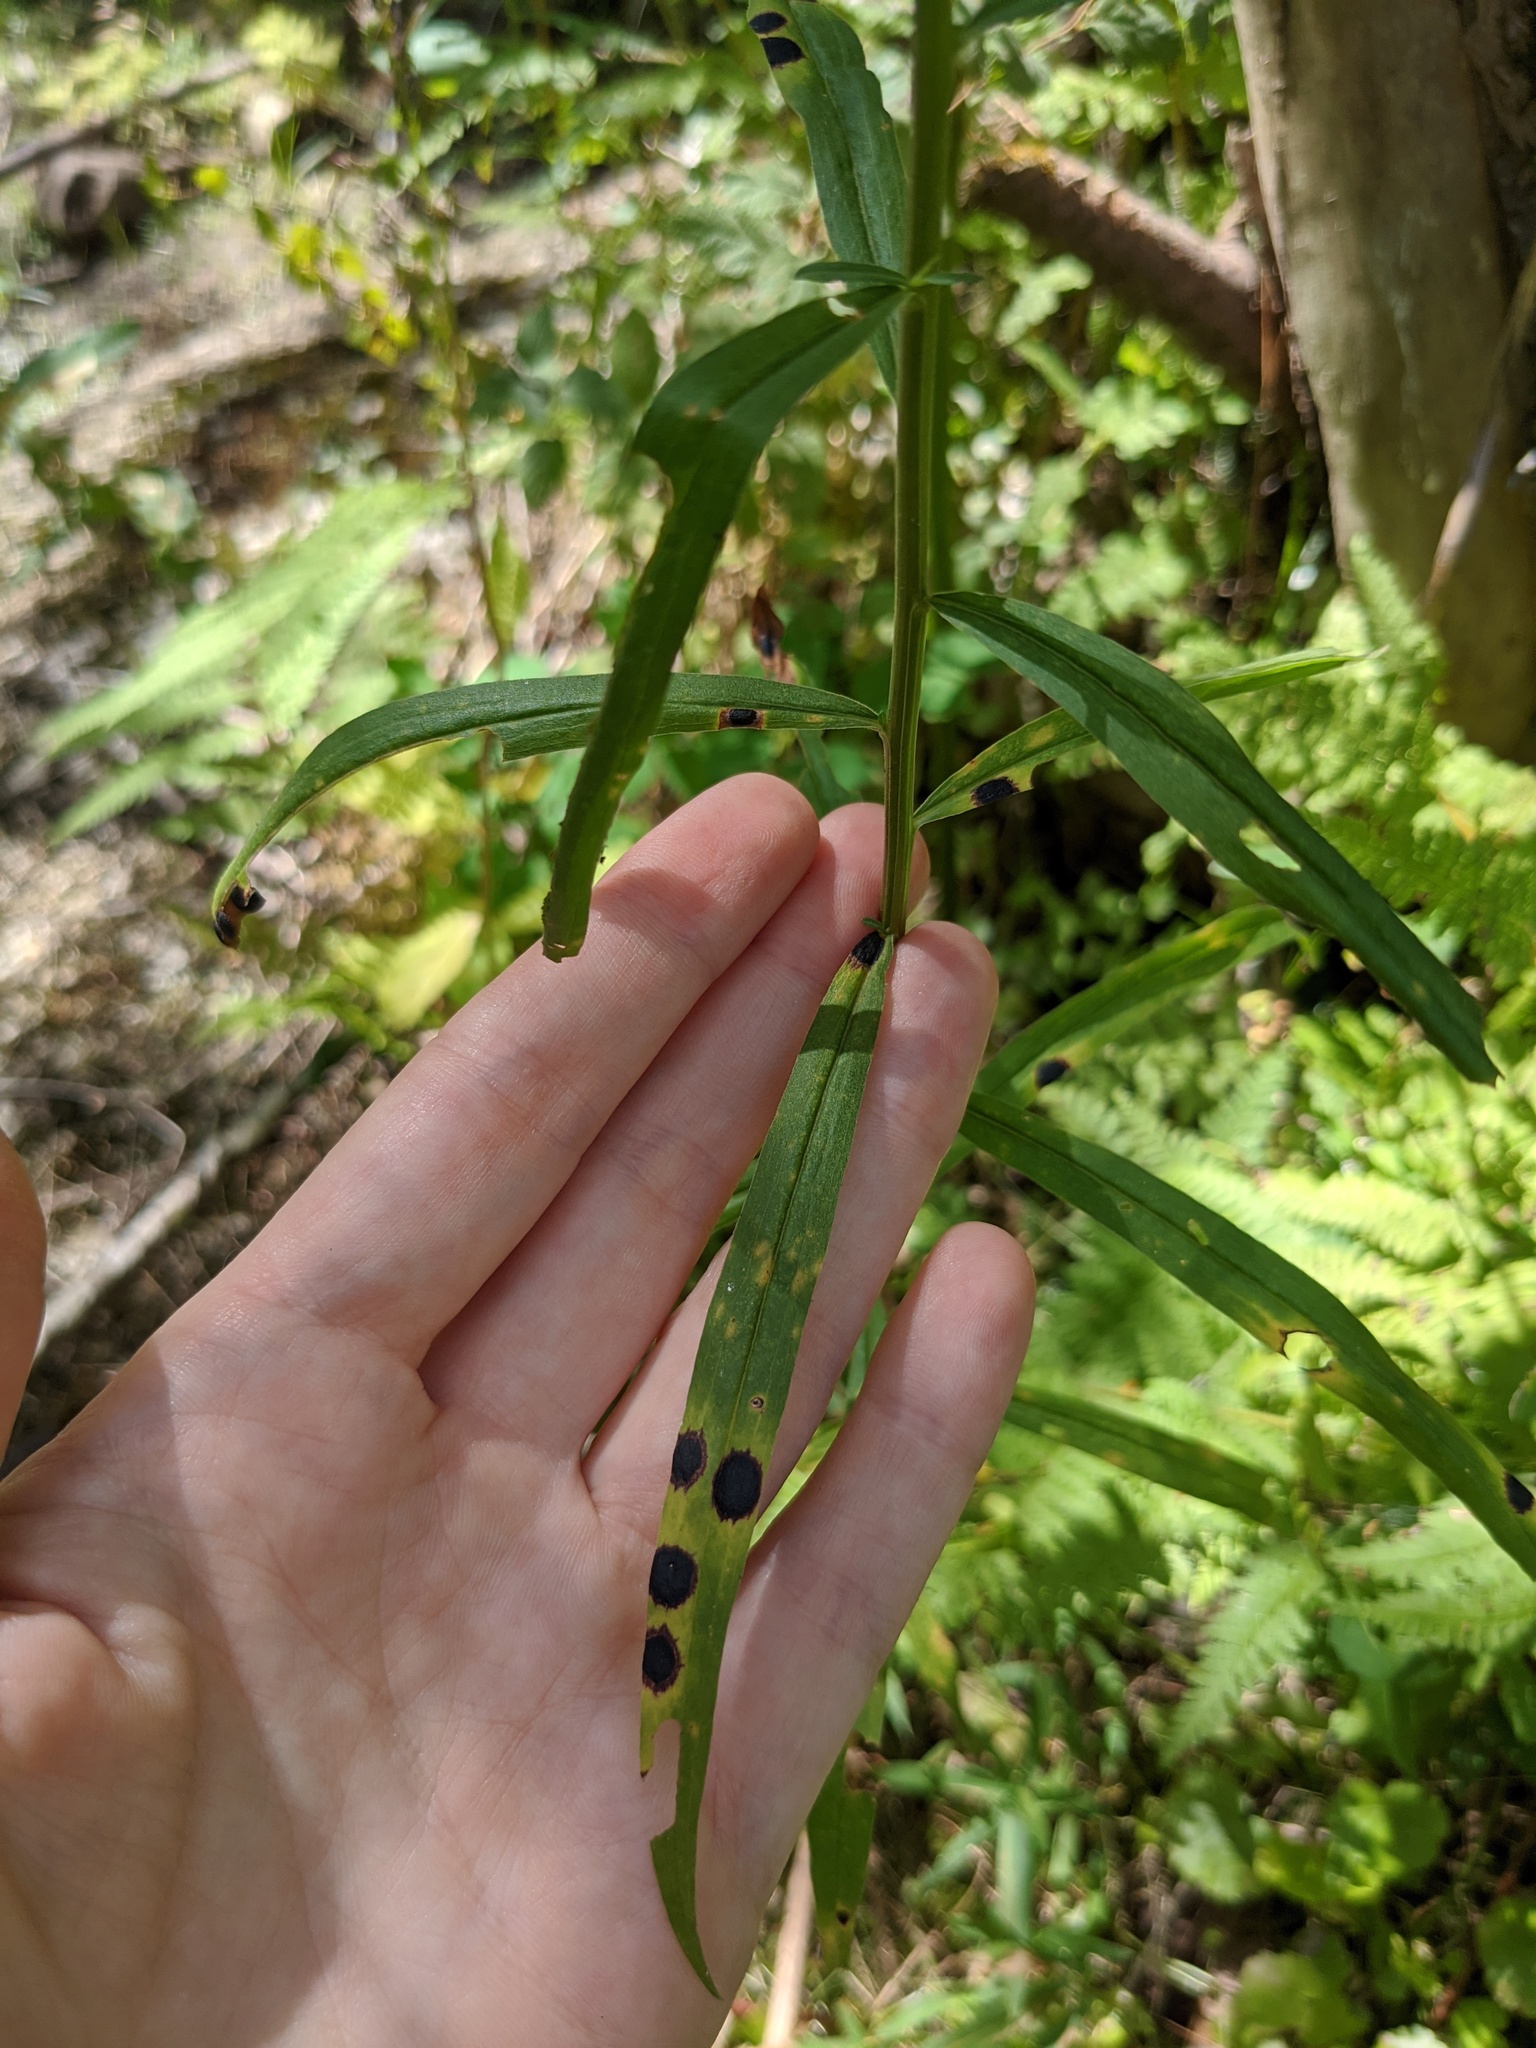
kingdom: Plantae
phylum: Tracheophyta
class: Magnoliopsida
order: Asterales
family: Asteraceae
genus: Euthamia
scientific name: Euthamia graminifolia
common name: Common goldentop
